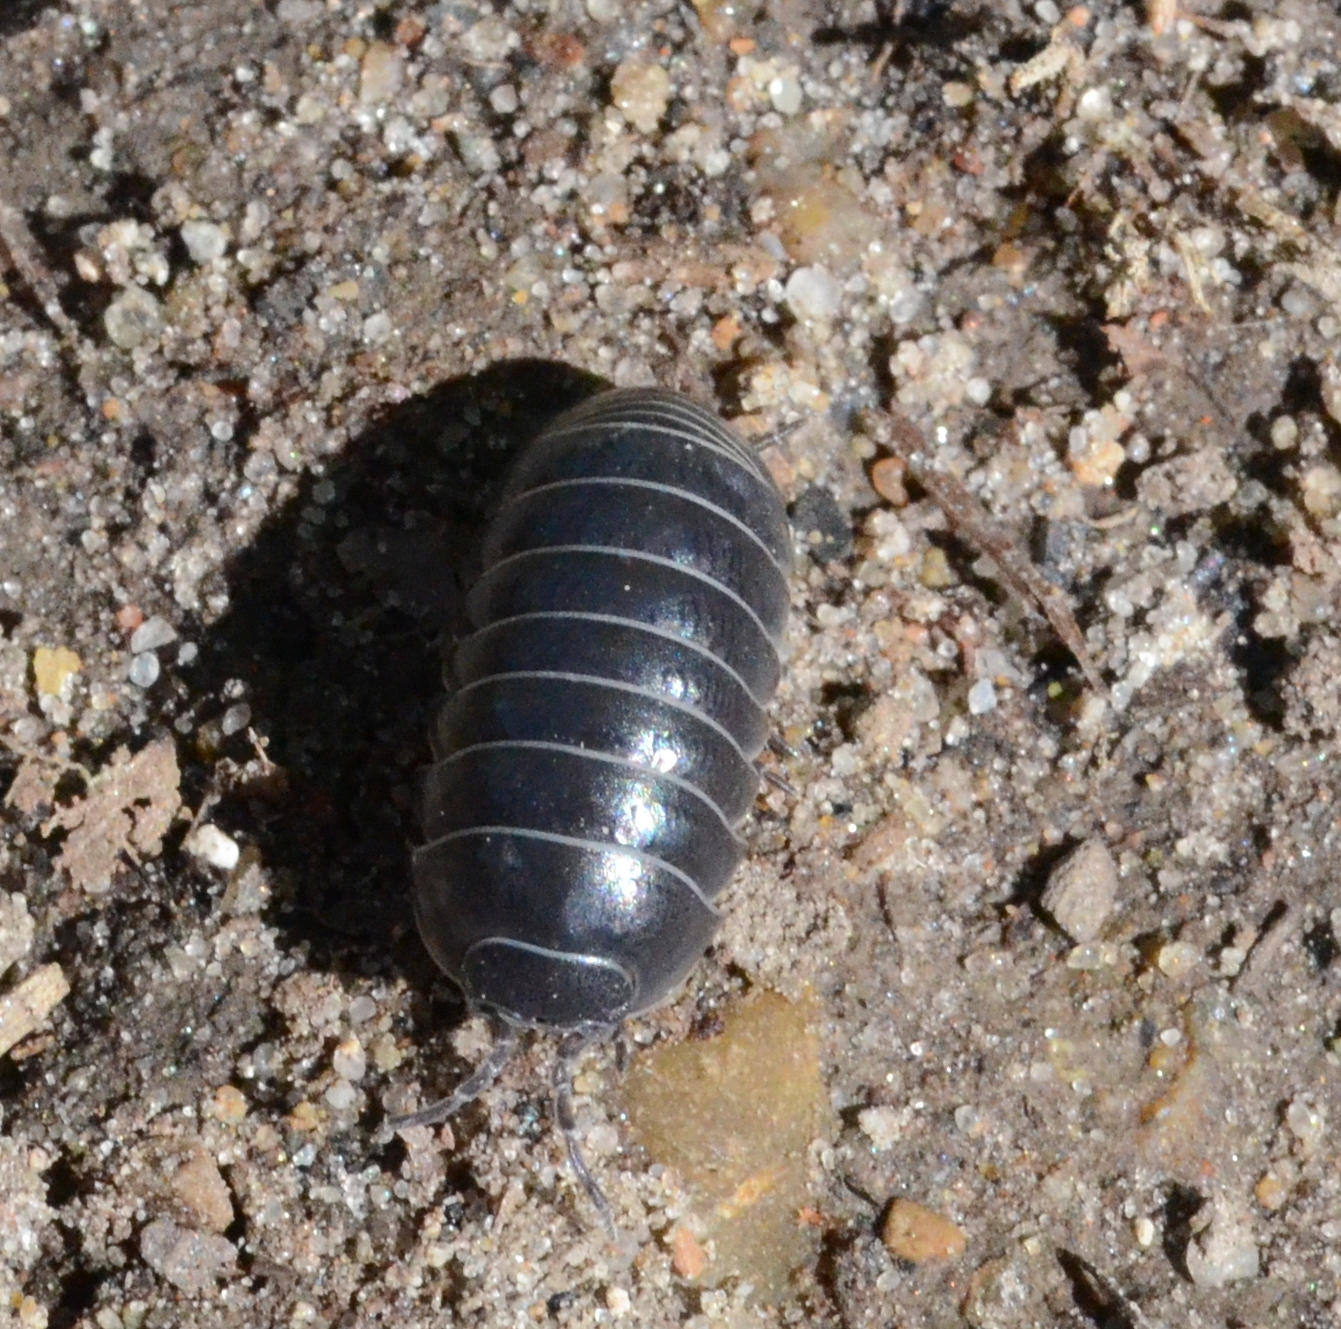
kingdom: Animalia
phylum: Arthropoda
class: Malacostraca
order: Isopoda
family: Armadillidiidae
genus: Armadillidium
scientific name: Armadillidium vulgare
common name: Common pill woodlouse
